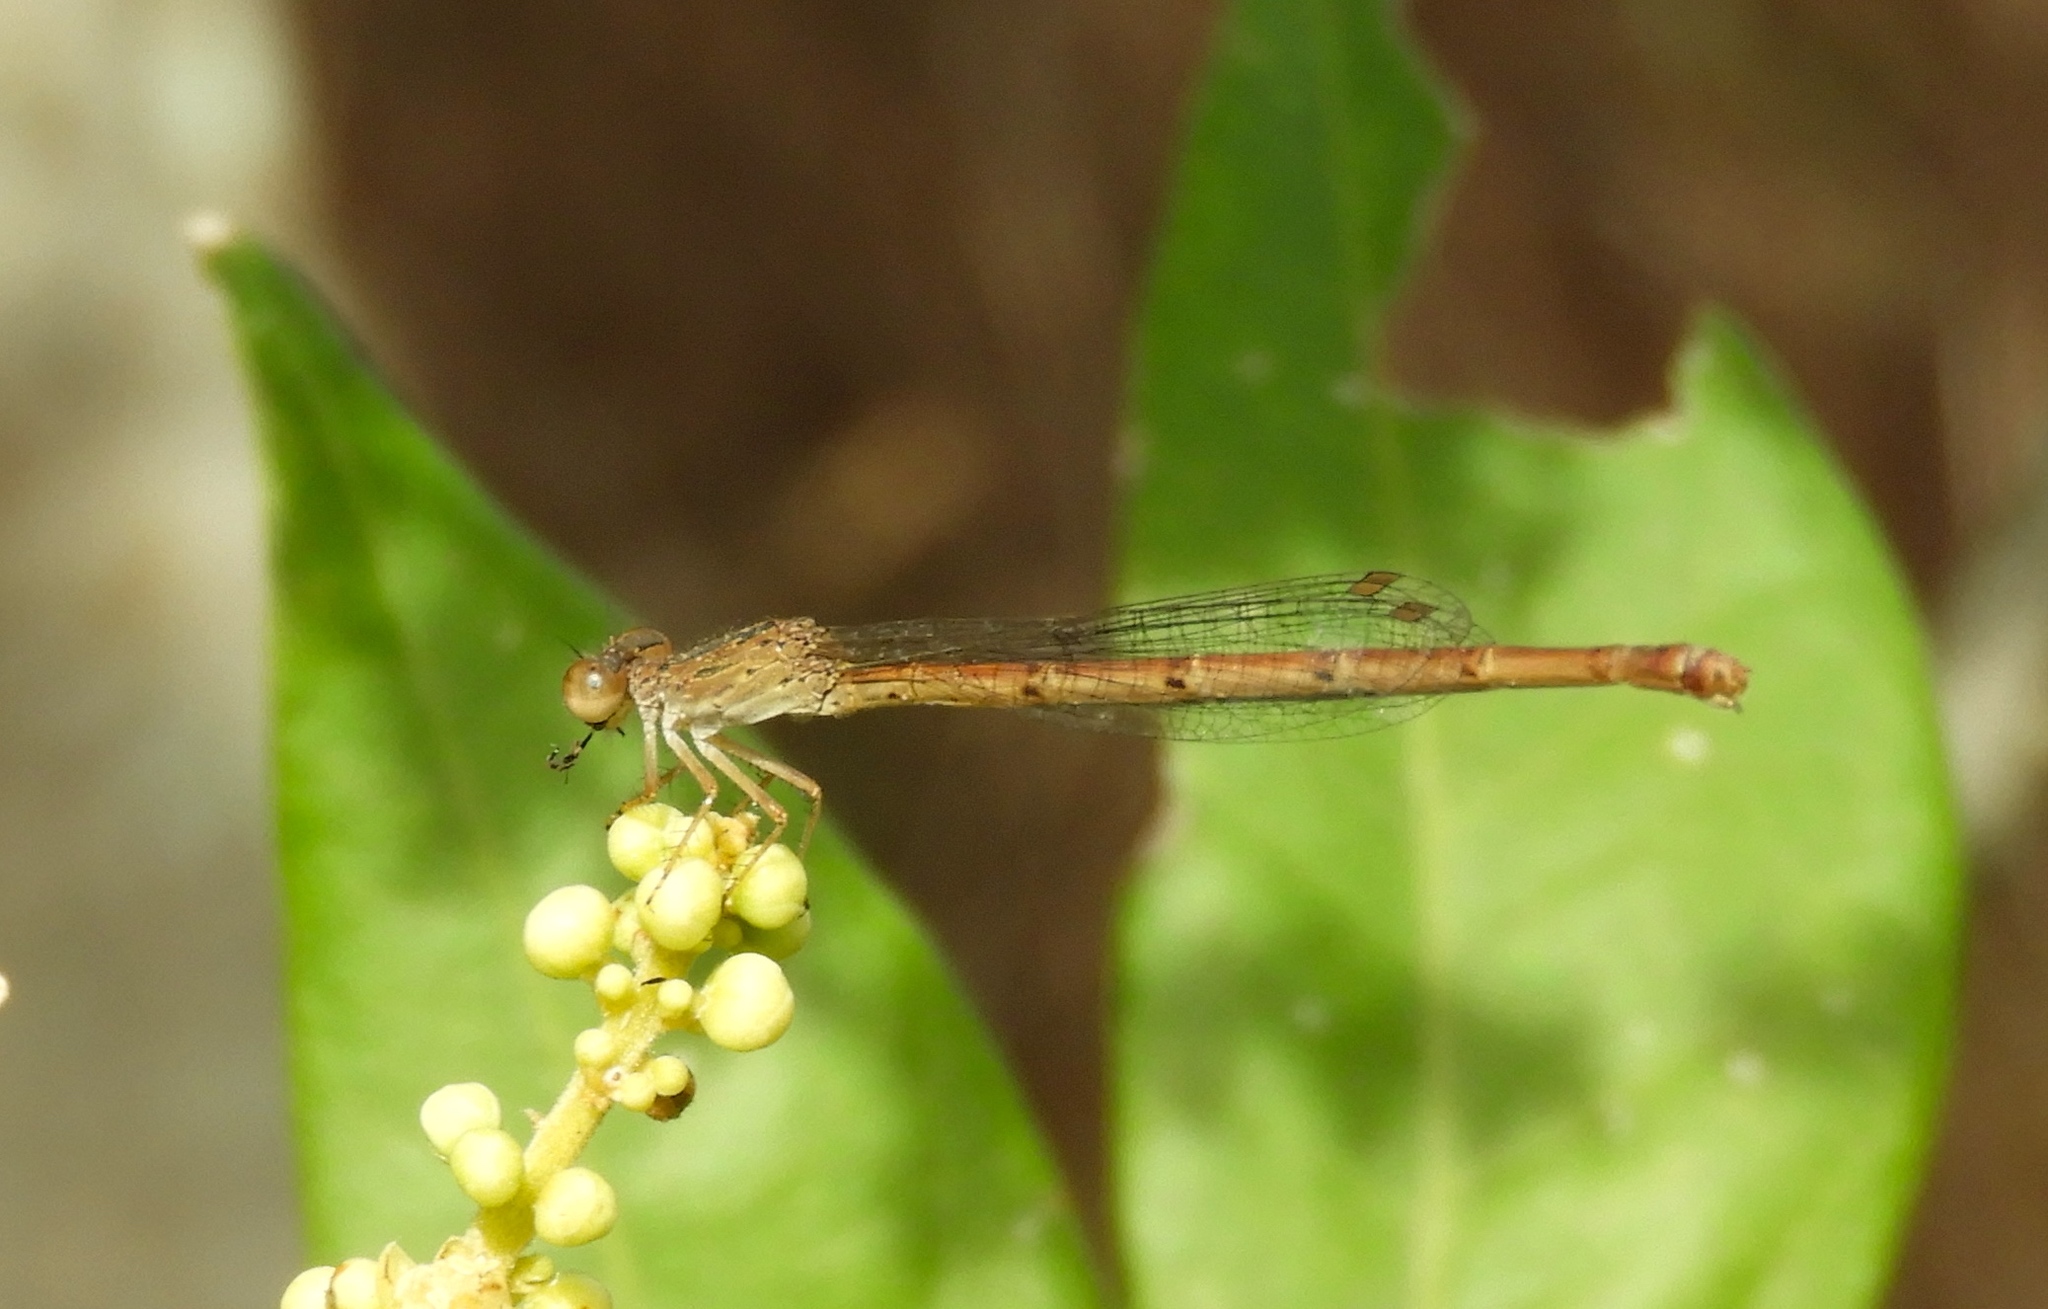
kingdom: Animalia
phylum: Arthropoda
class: Insecta
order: Odonata
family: Coenagrionidae
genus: Telebasis
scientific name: Telebasis salva
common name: Desert firetail
